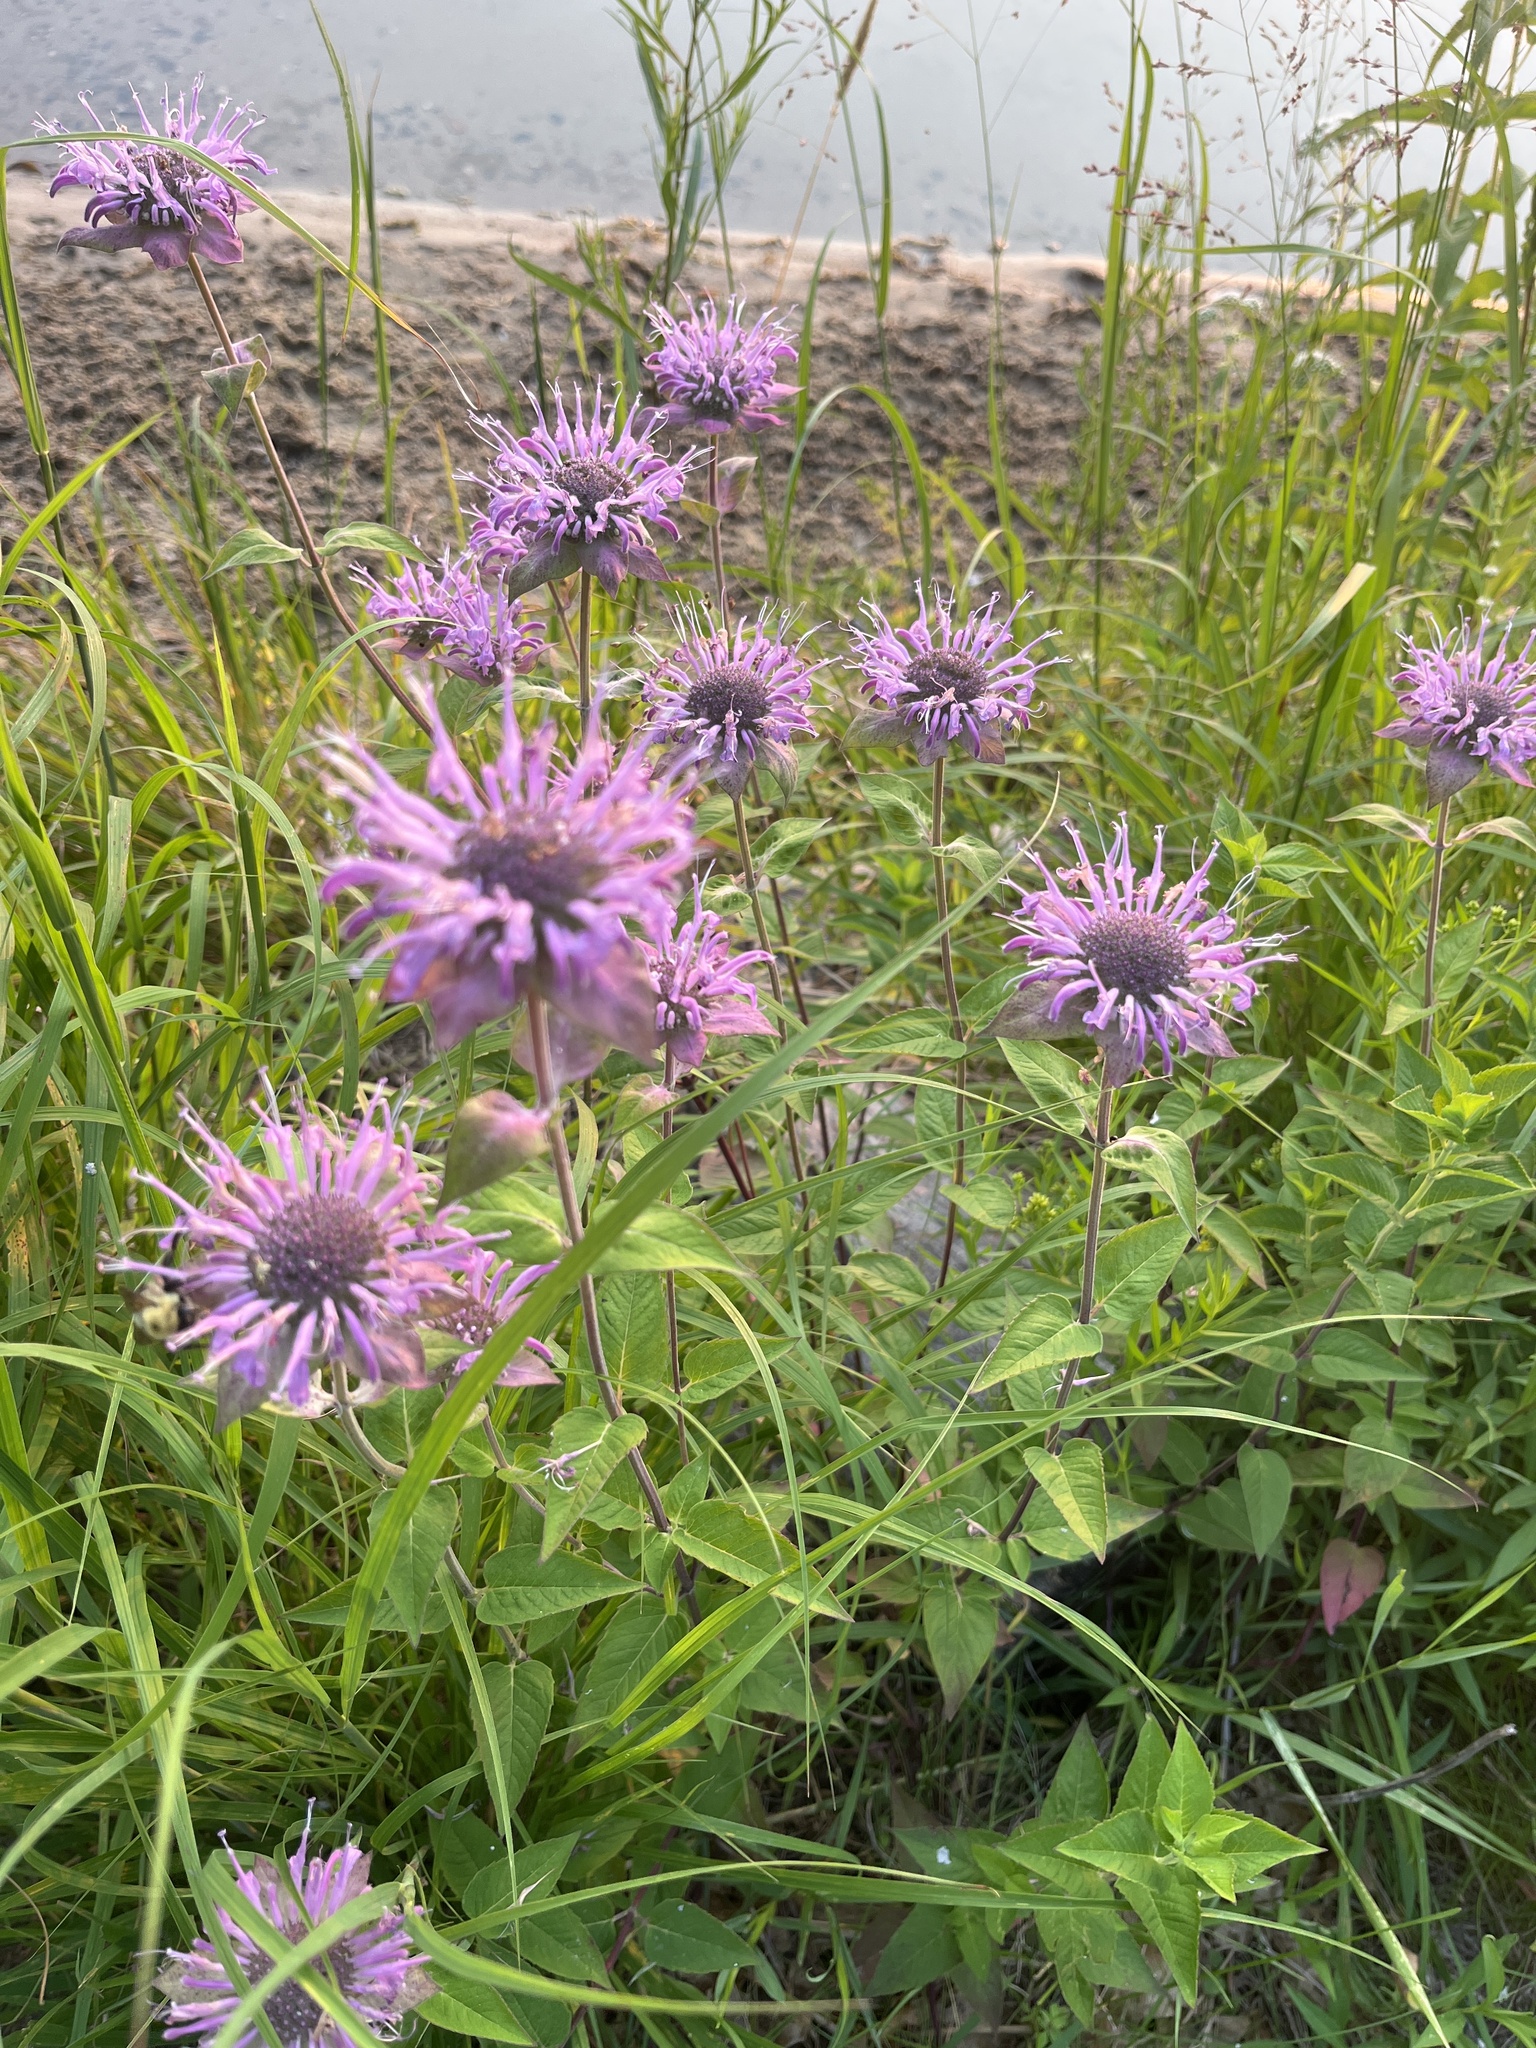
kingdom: Plantae
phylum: Tracheophyta
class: Magnoliopsida
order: Lamiales
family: Lamiaceae
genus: Monarda
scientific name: Monarda fistulosa
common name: Purple beebalm
